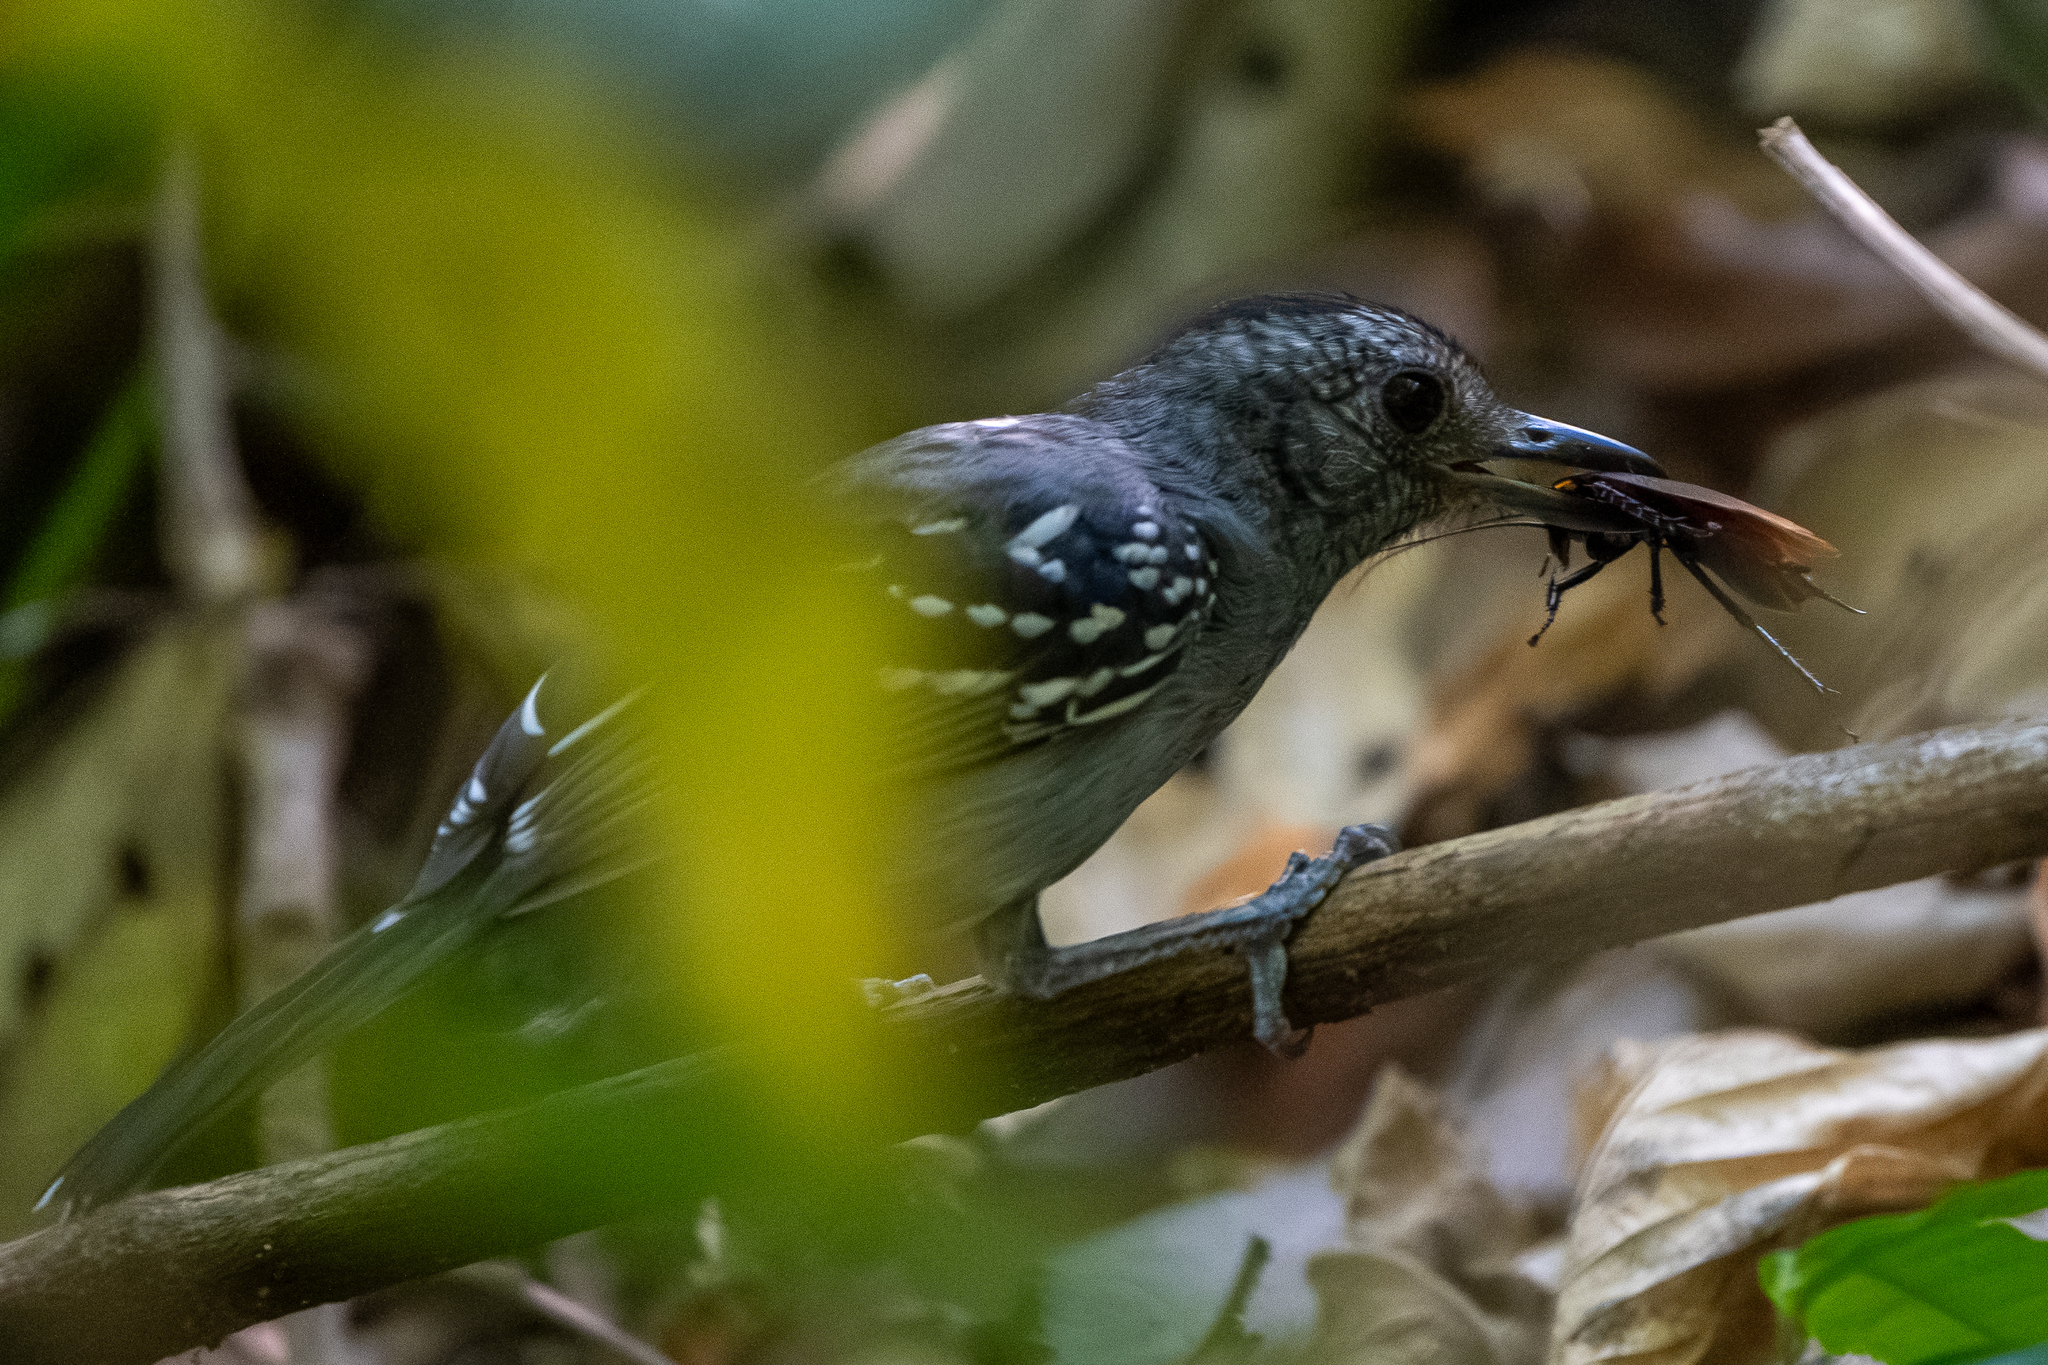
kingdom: Animalia
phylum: Chordata
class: Aves
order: Passeriformes
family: Thamnophilidae
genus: Thamnophilus
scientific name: Thamnophilus atrinucha
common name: Black-crowned antshrike
